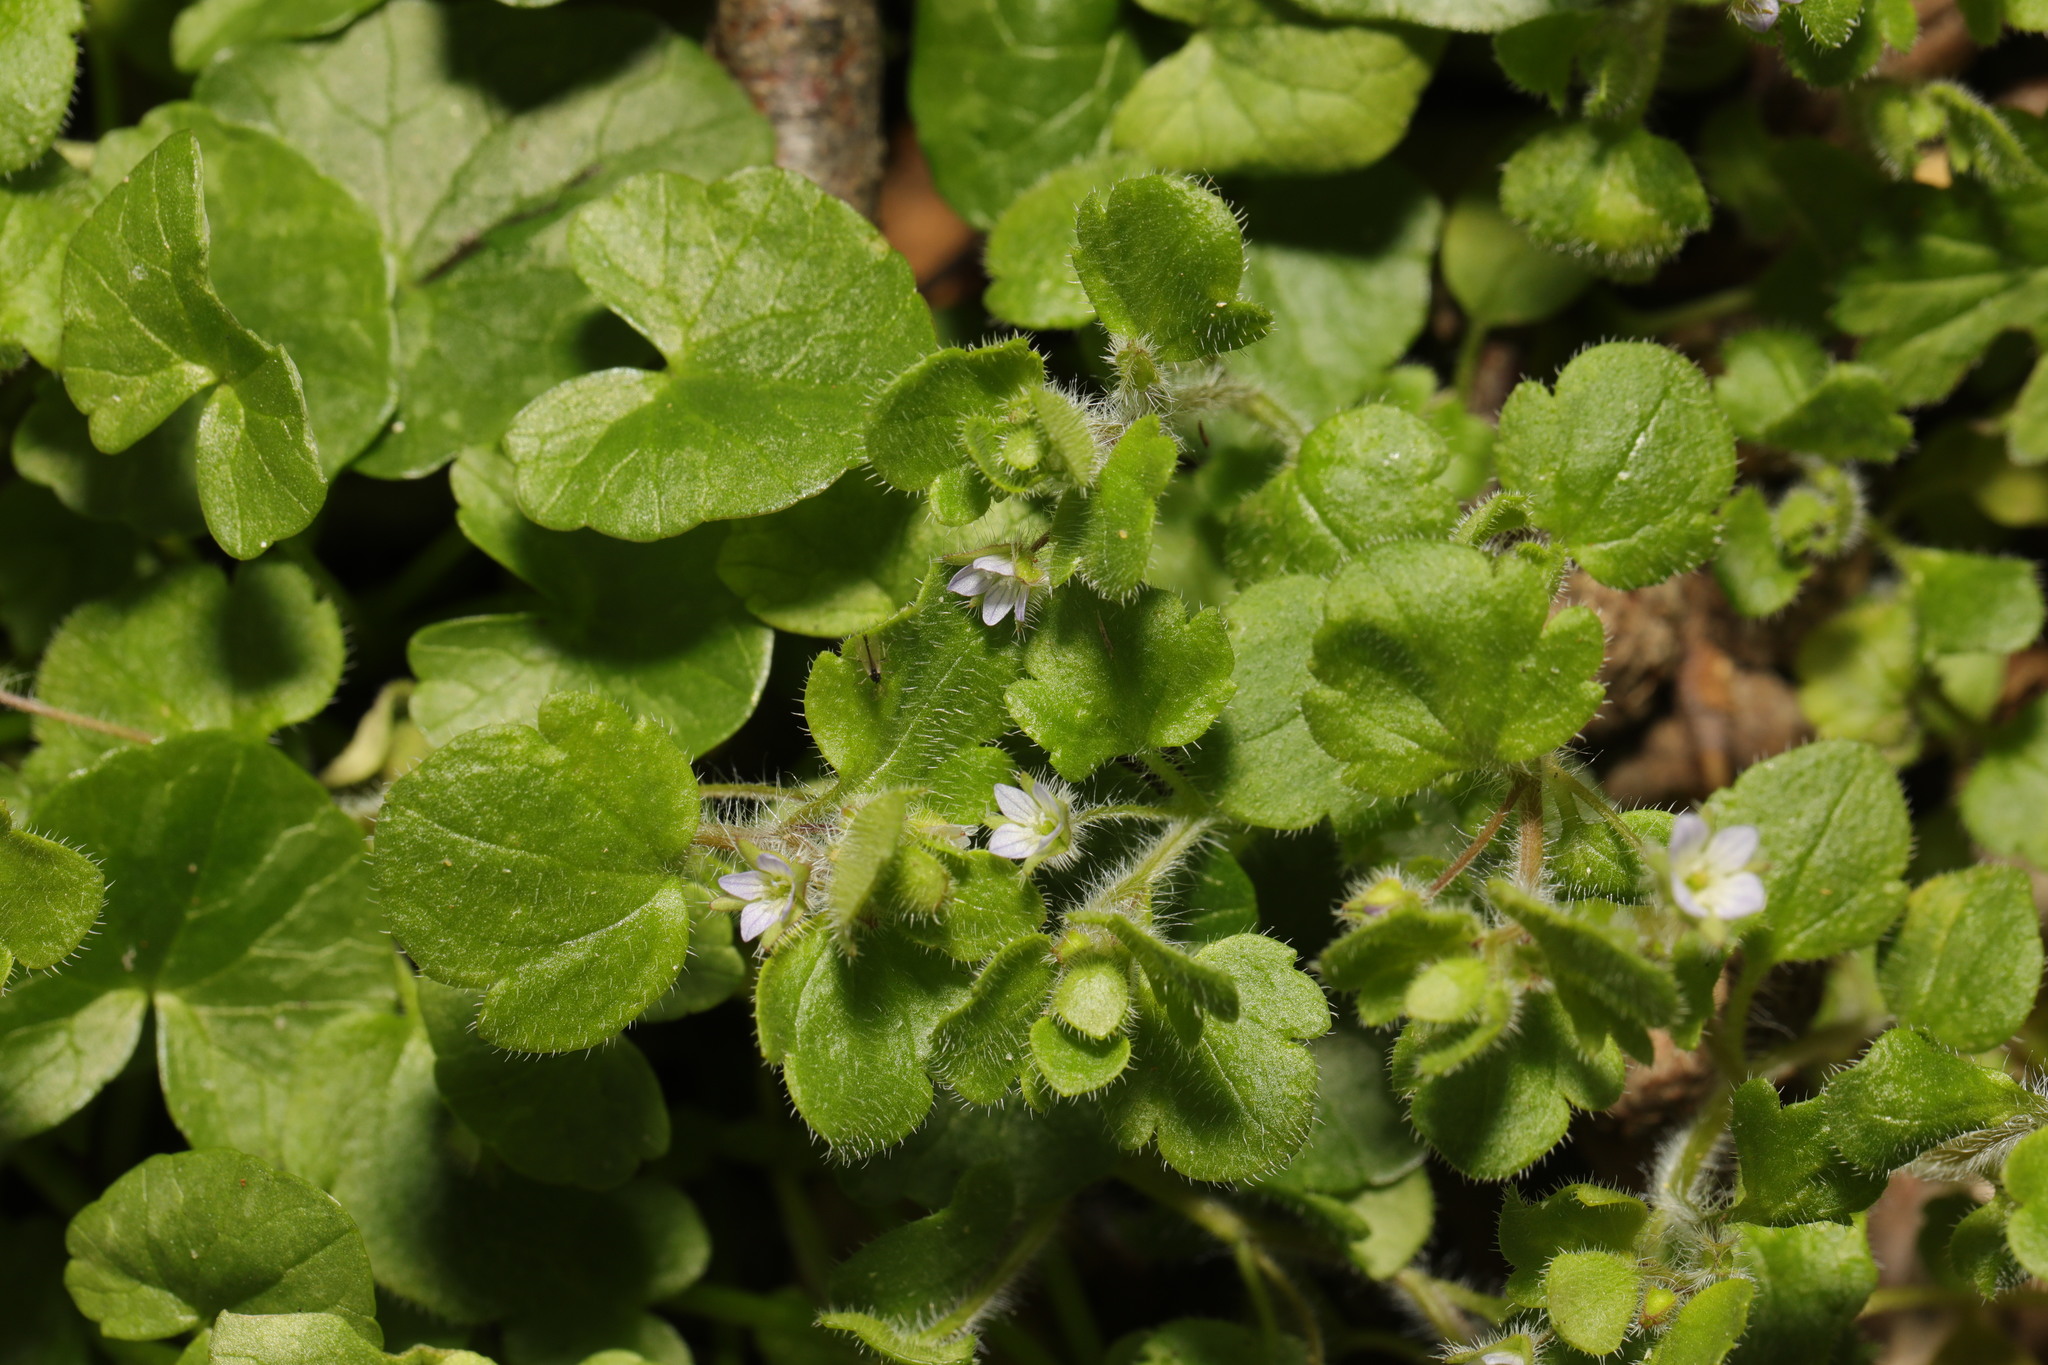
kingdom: Plantae
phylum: Tracheophyta
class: Magnoliopsida
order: Lamiales
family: Plantaginaceae
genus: Veronica
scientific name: Veronica sublobata
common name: False ivy-leaved speedwell
